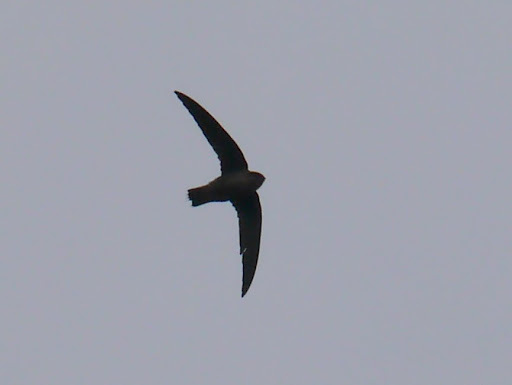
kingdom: Animalia
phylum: Chordata
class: Aves
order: Apodiformes
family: Apodidae
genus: Chaetura
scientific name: Chaetura pelagica
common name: Chimney swift
